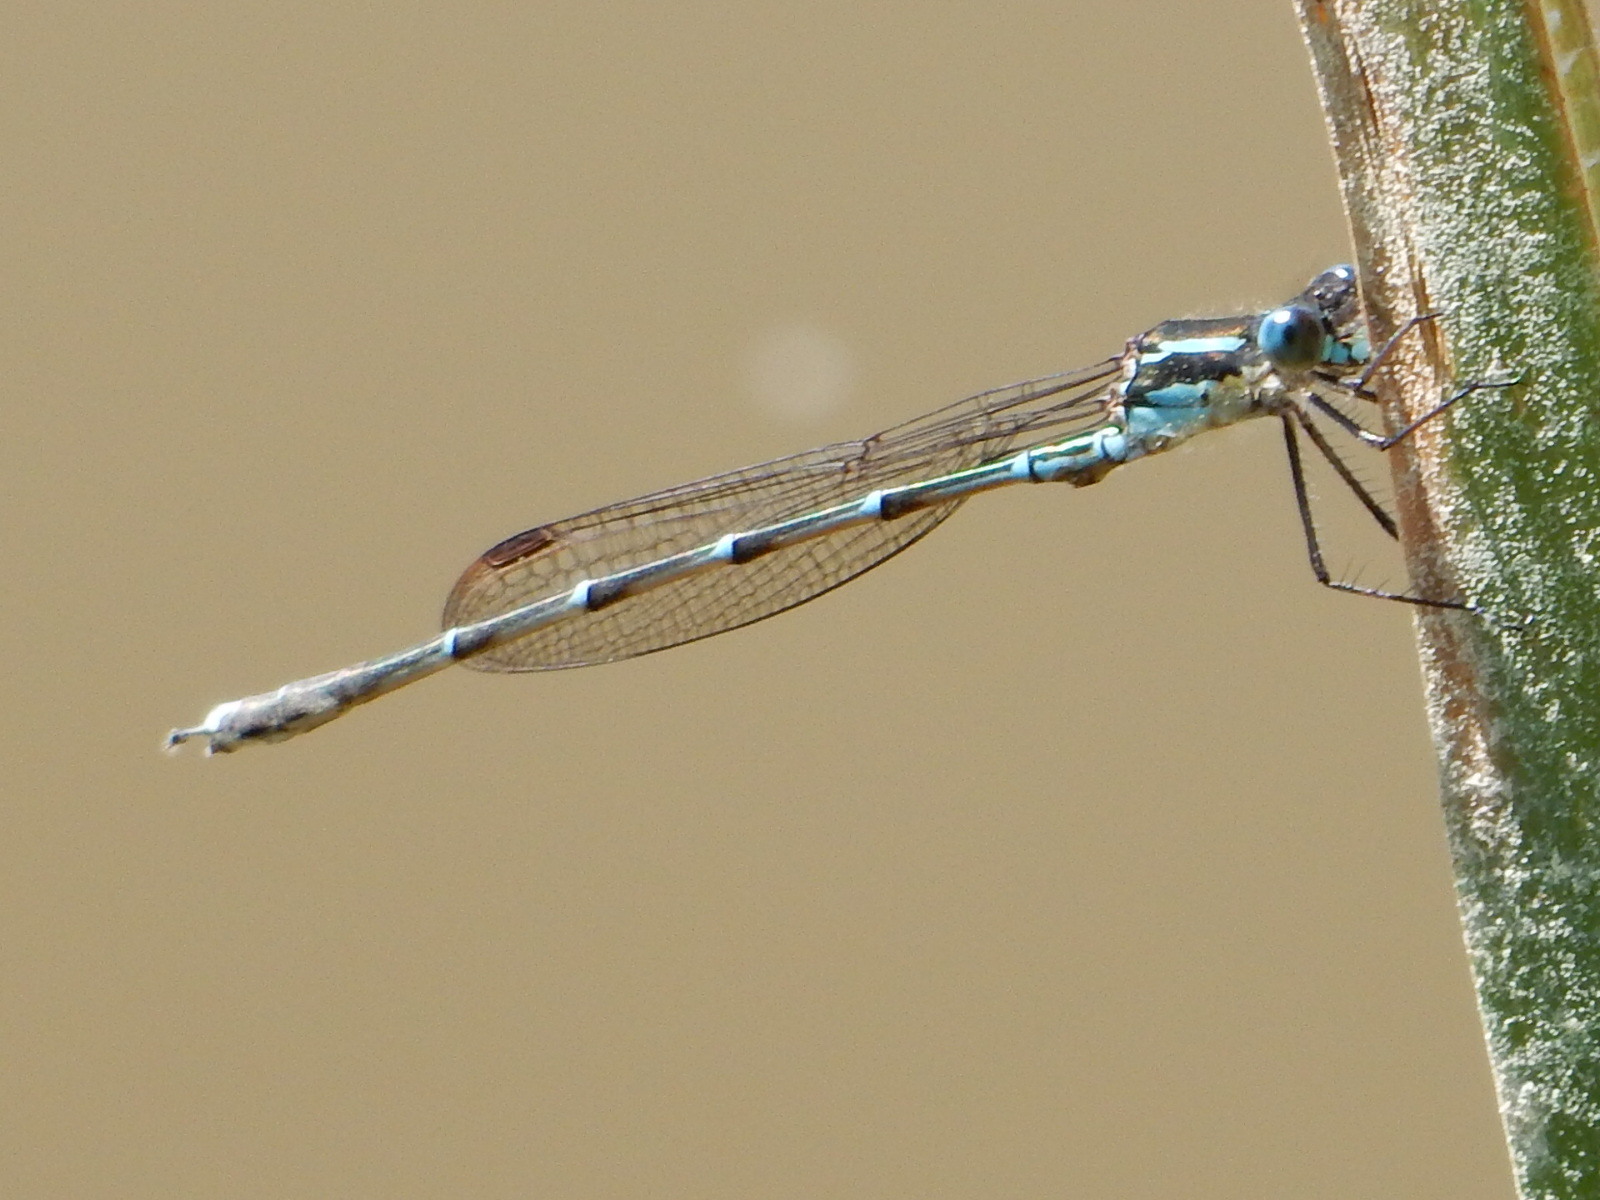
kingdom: Animalia
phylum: Arthropoda
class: Insecta
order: Odonata
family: Lestidae
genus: Austrolestes
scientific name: Austrolestes colensonis
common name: Blue damselfly
